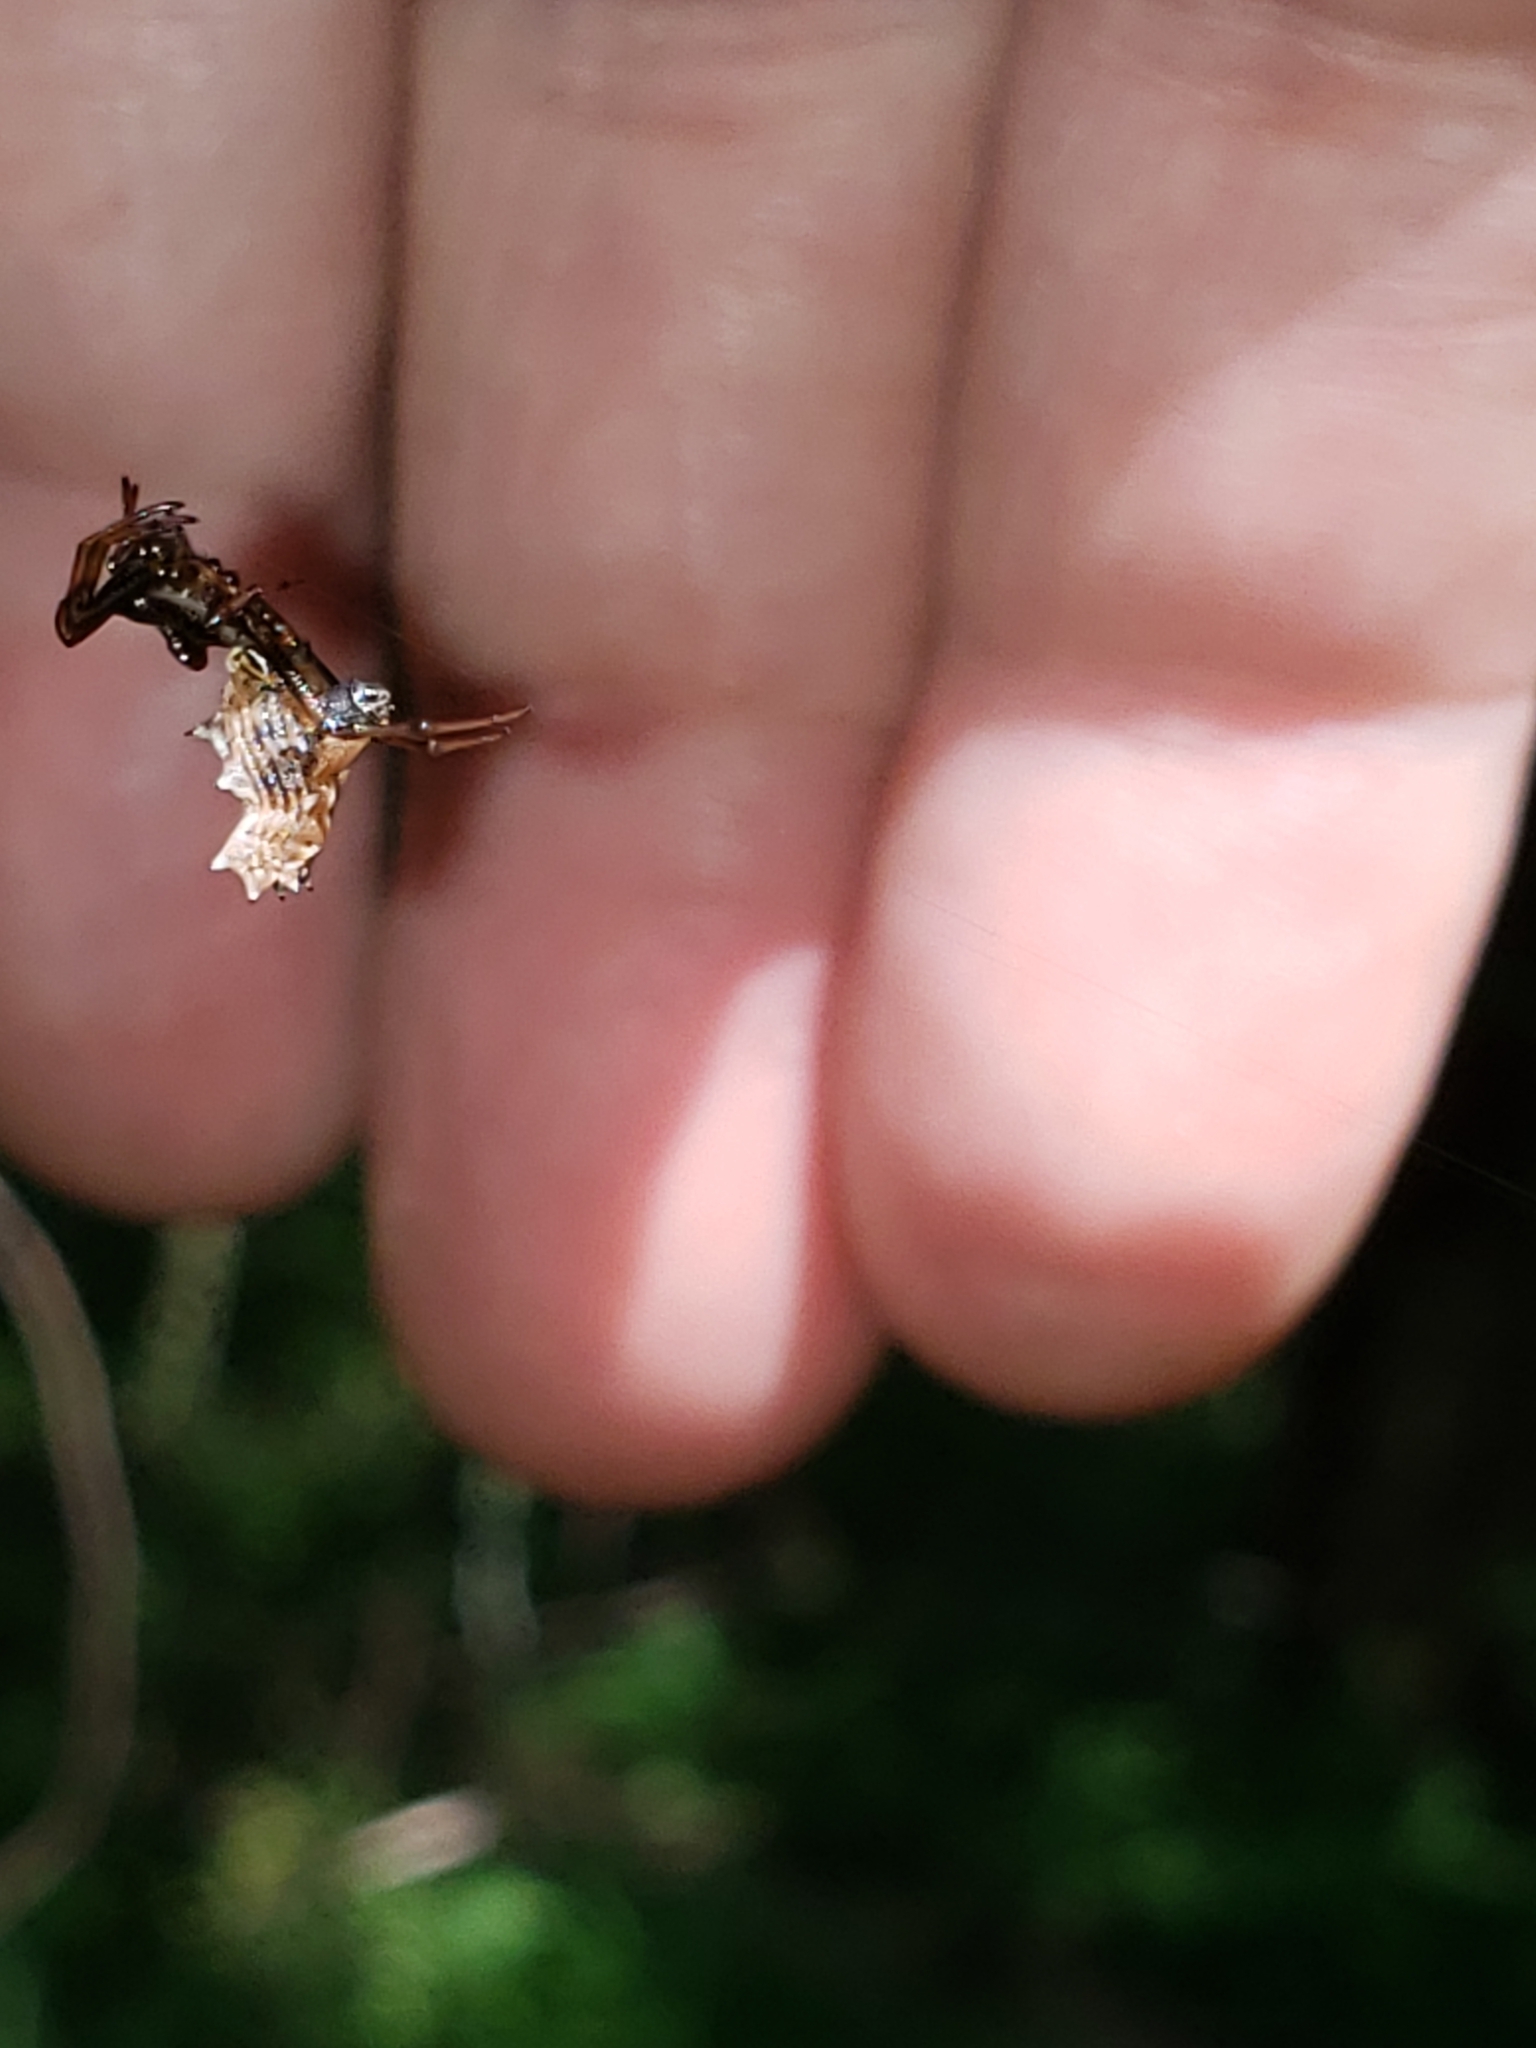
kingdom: Animalia
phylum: Arthropoda
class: Arachnida
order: Araneae
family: Araneidae
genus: Micrathena
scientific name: Micrathena gracilis
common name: Orb weavers
